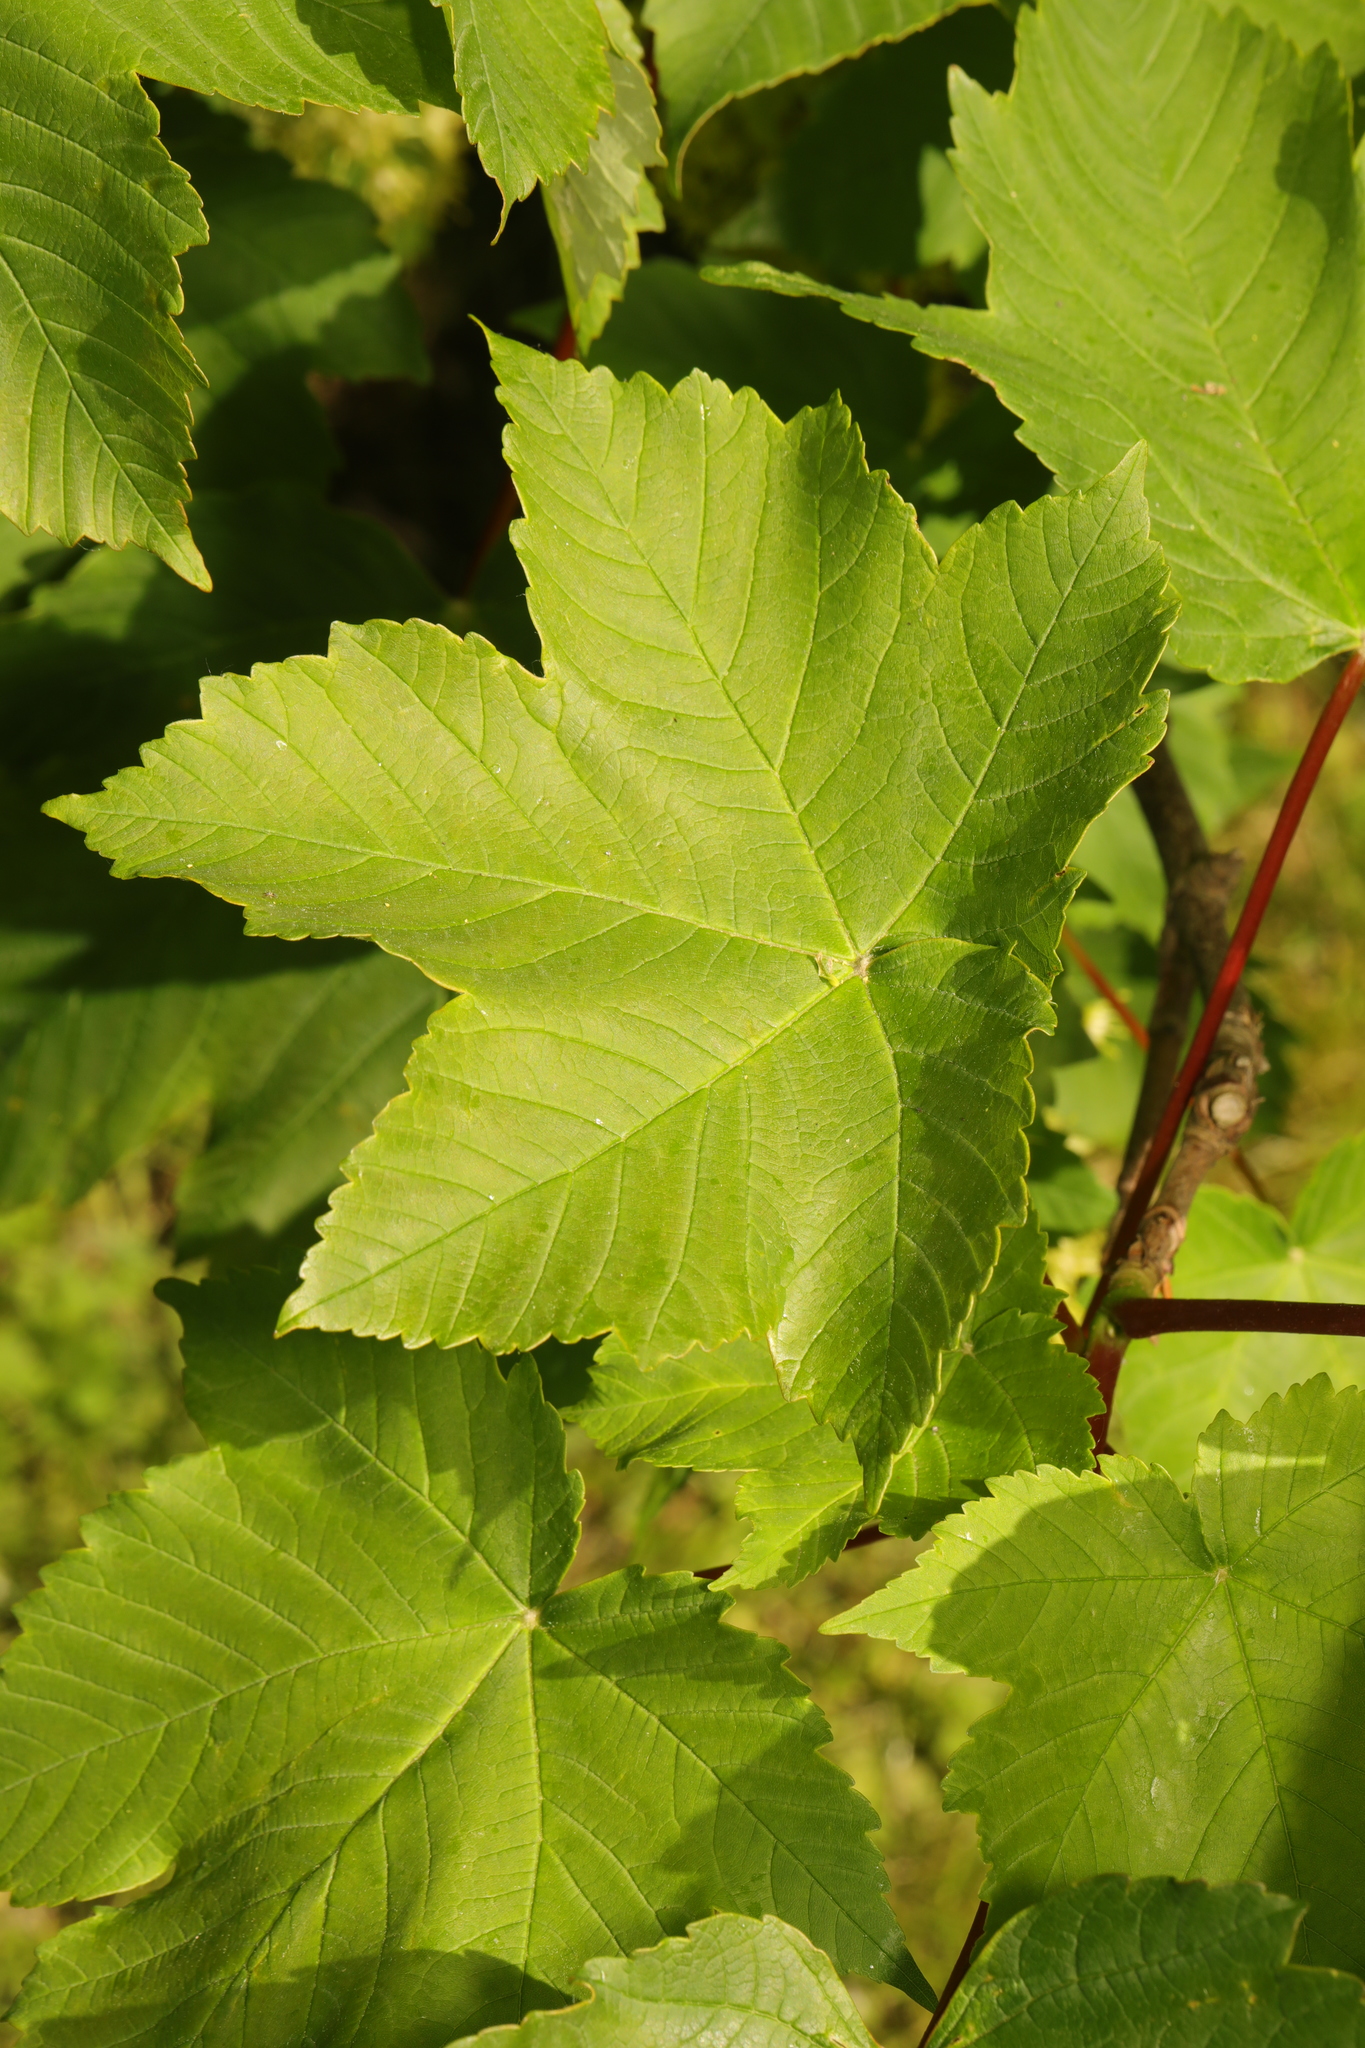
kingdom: Plantae
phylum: Tracheophyta
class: Magnoliopsida
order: Sapindales
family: Sapindaceae
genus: Acer
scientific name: Acer pseudoplatanus
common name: Sycamore
